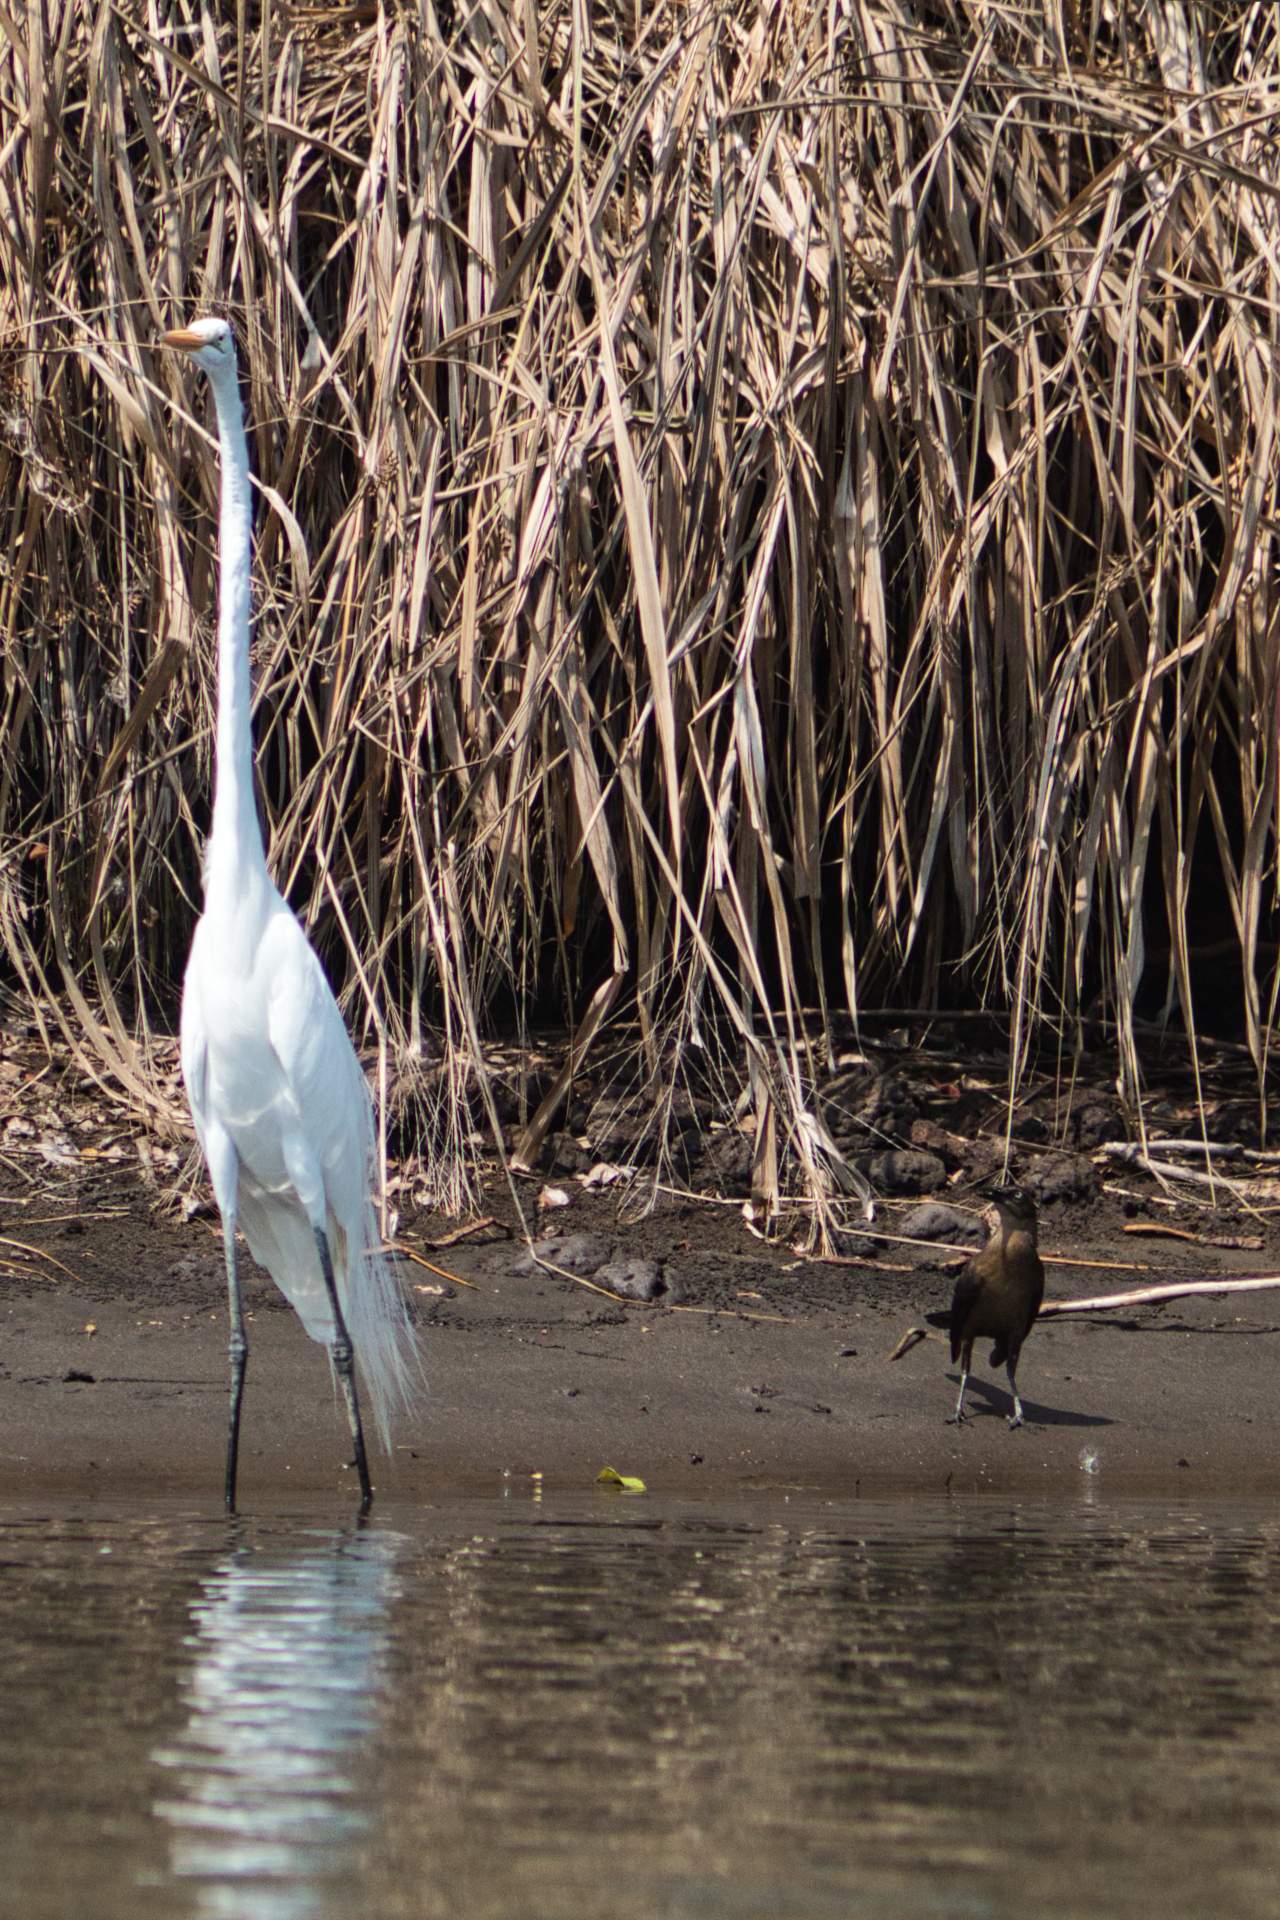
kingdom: Animalia
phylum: Chordata
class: Aves
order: Pelecaniformes
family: Ardeidae
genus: Ardea
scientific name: Ardea alba
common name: Great egret
